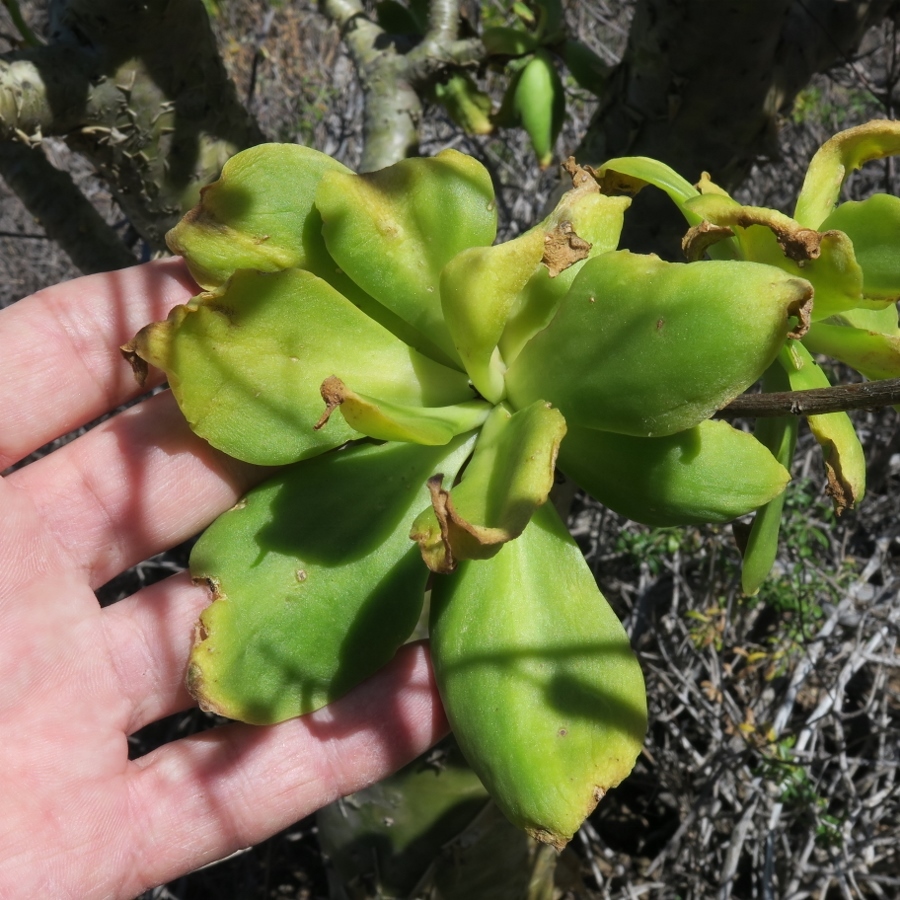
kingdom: Plantae
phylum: Tracheophyta
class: Magnoliopsida
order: Saxifragales
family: Crassulaceae
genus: Tylecodon
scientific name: Tylecodon paniculatus
